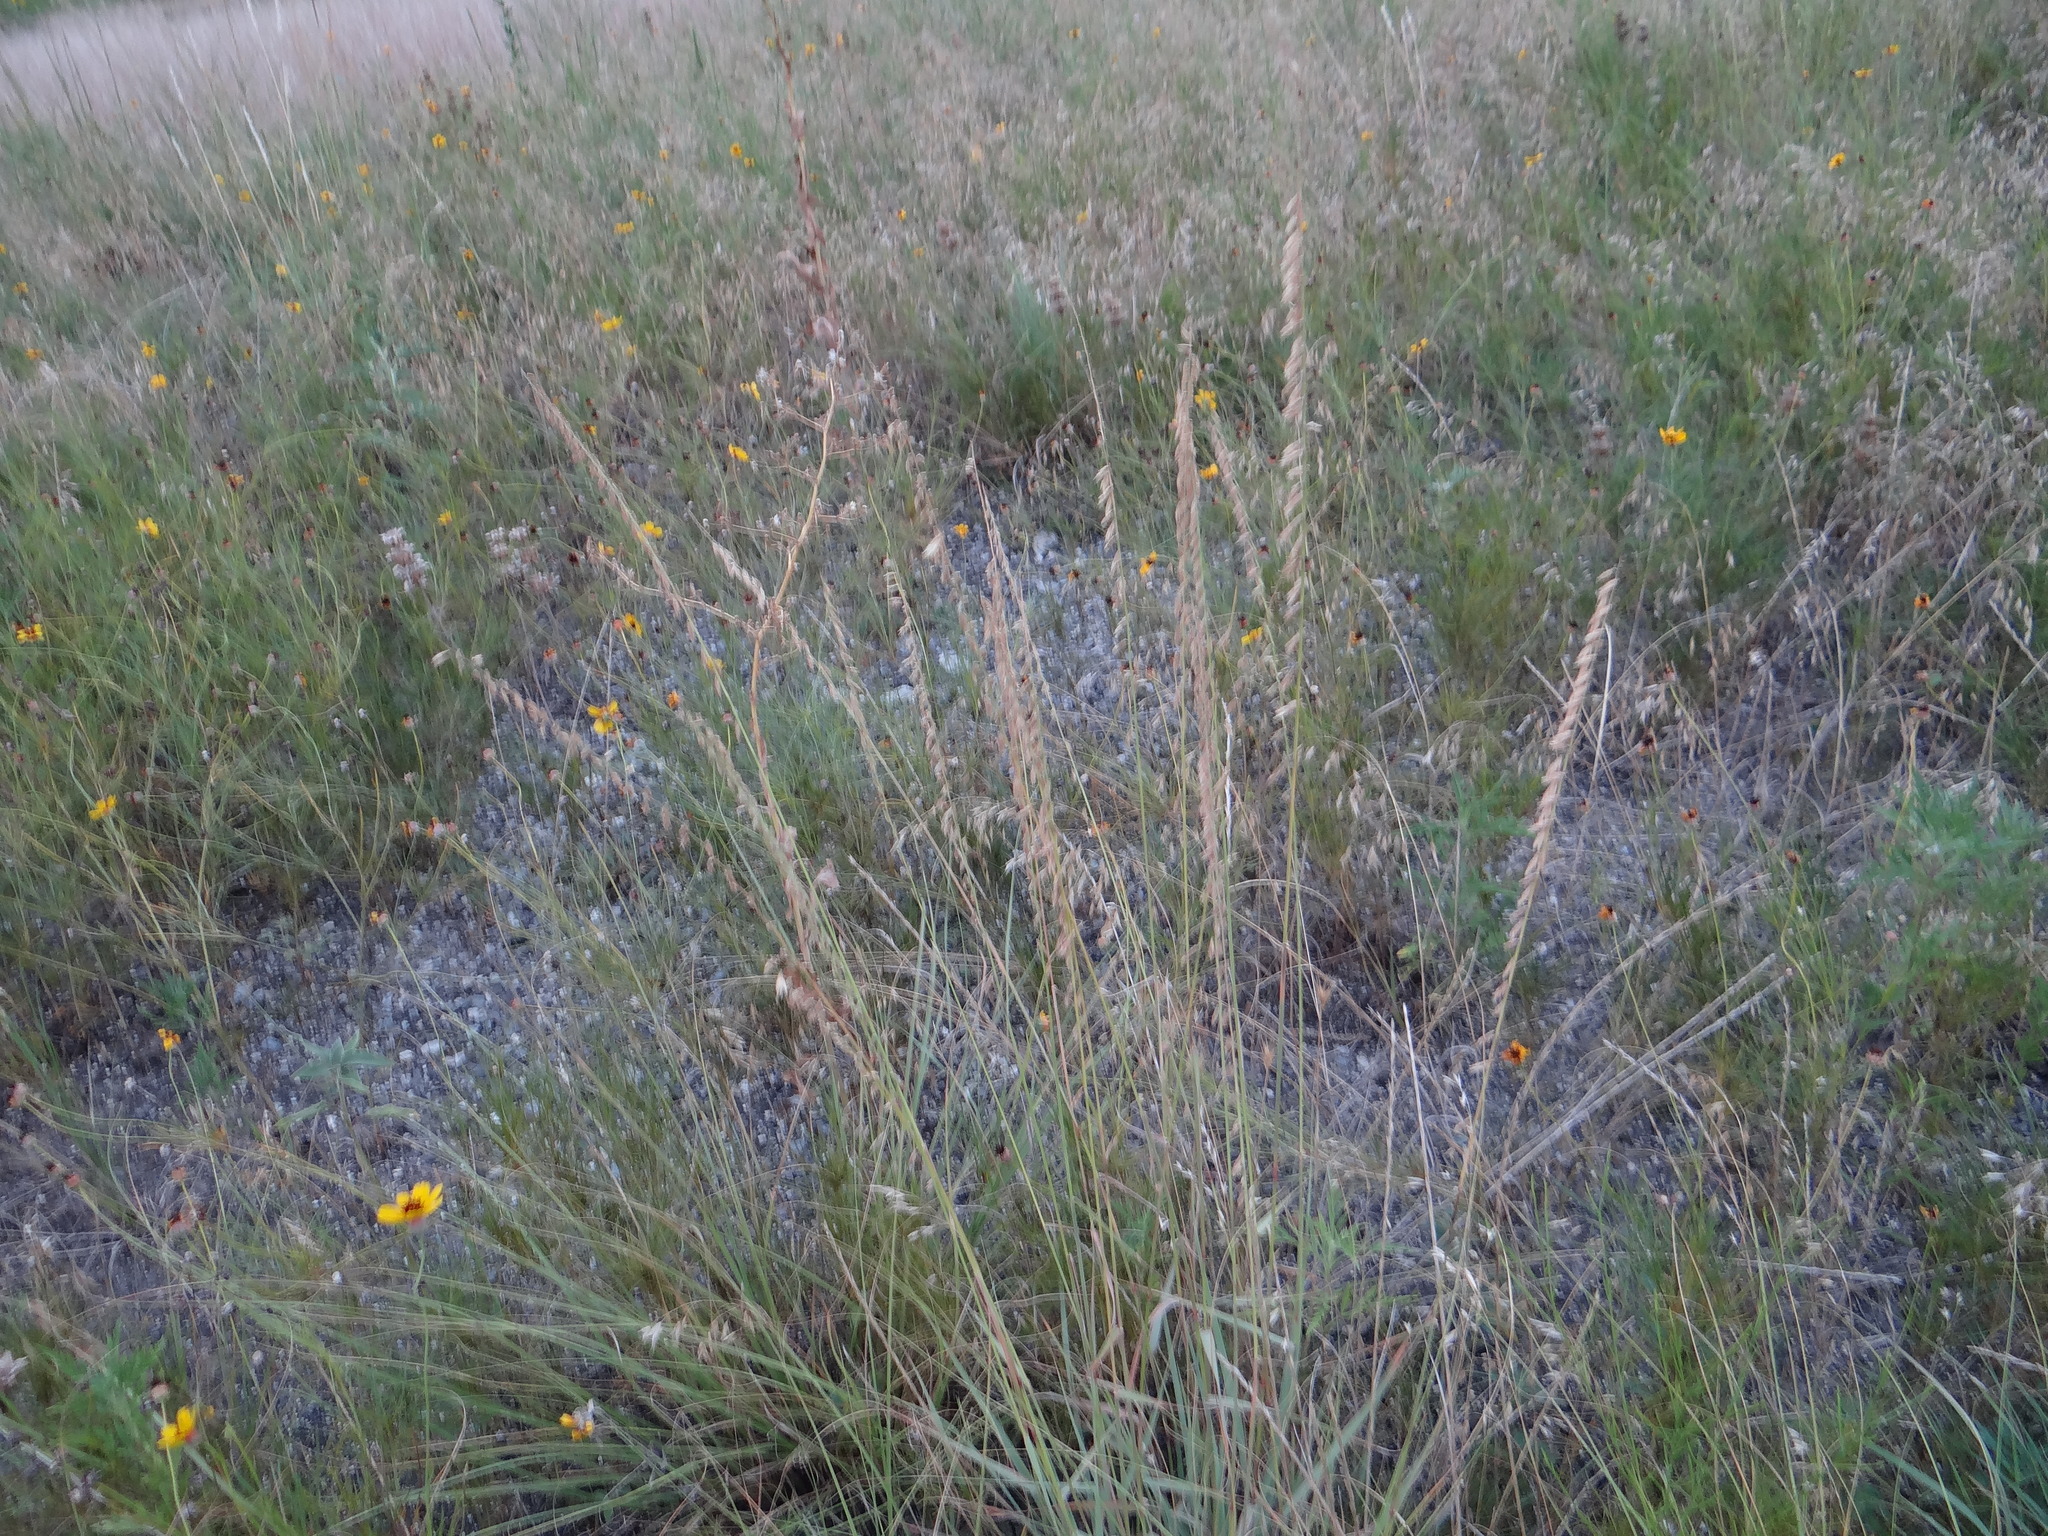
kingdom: Plantae
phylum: Tracheophyta
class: Liliopsida
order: Poales
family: Poaceae
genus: Bouteloua
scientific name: Bouteloua curtipendula
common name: Side-oats grama
